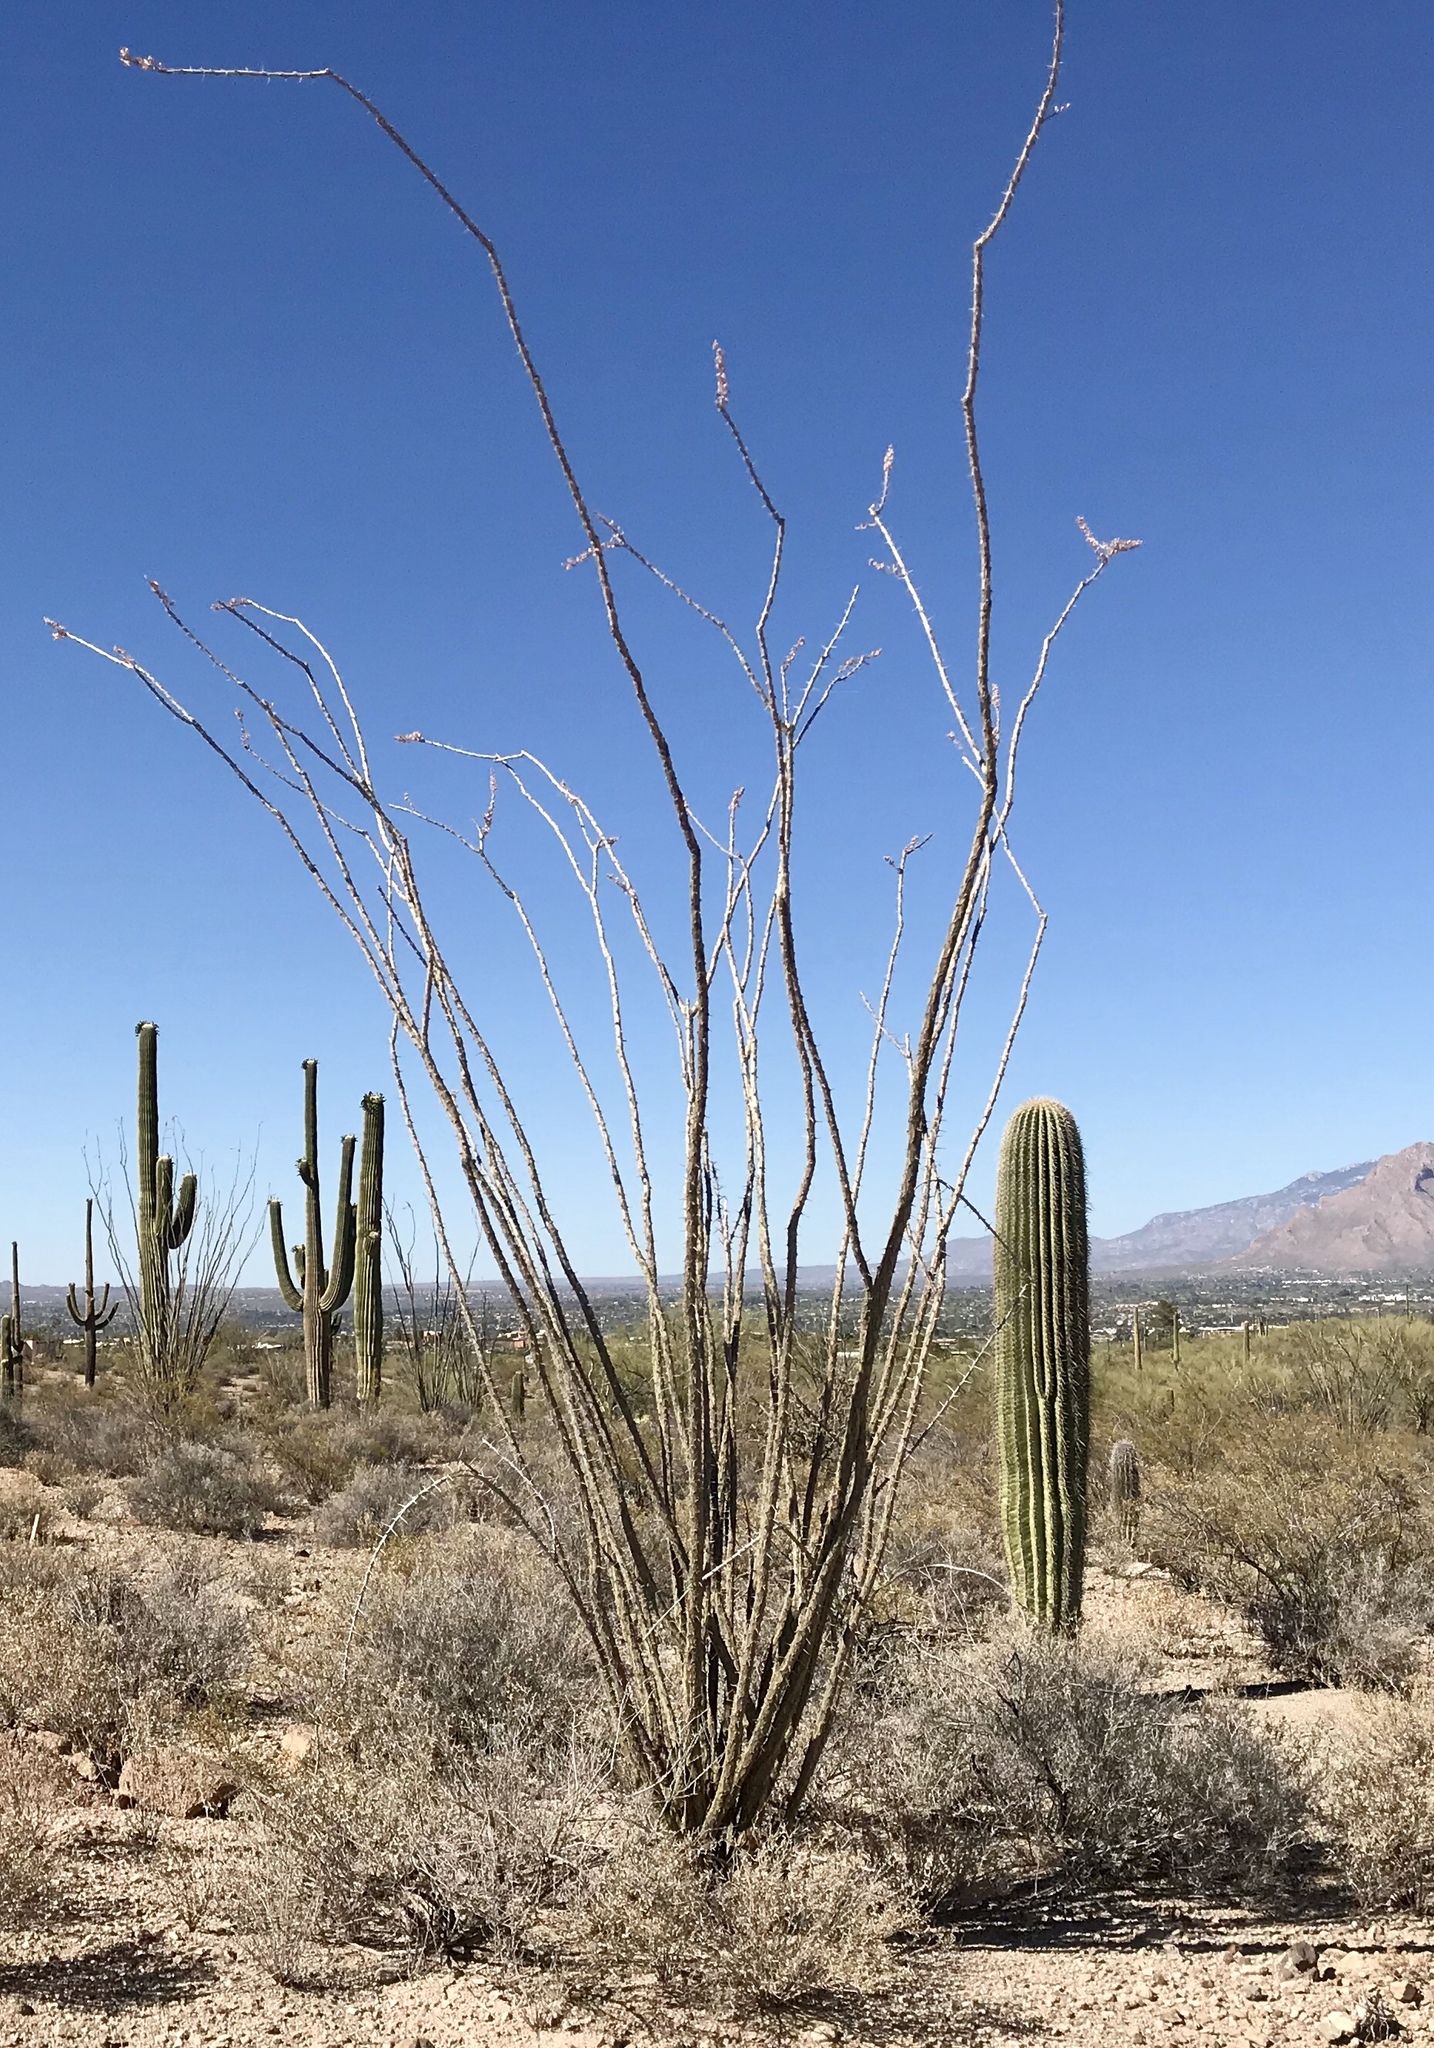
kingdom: Plantae
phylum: Tracheophyta
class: Magnoliopsida
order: Ericales
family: Fouquieriaceae
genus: Fouquieria
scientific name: Fouquieria splendens
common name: Vine-cactus
